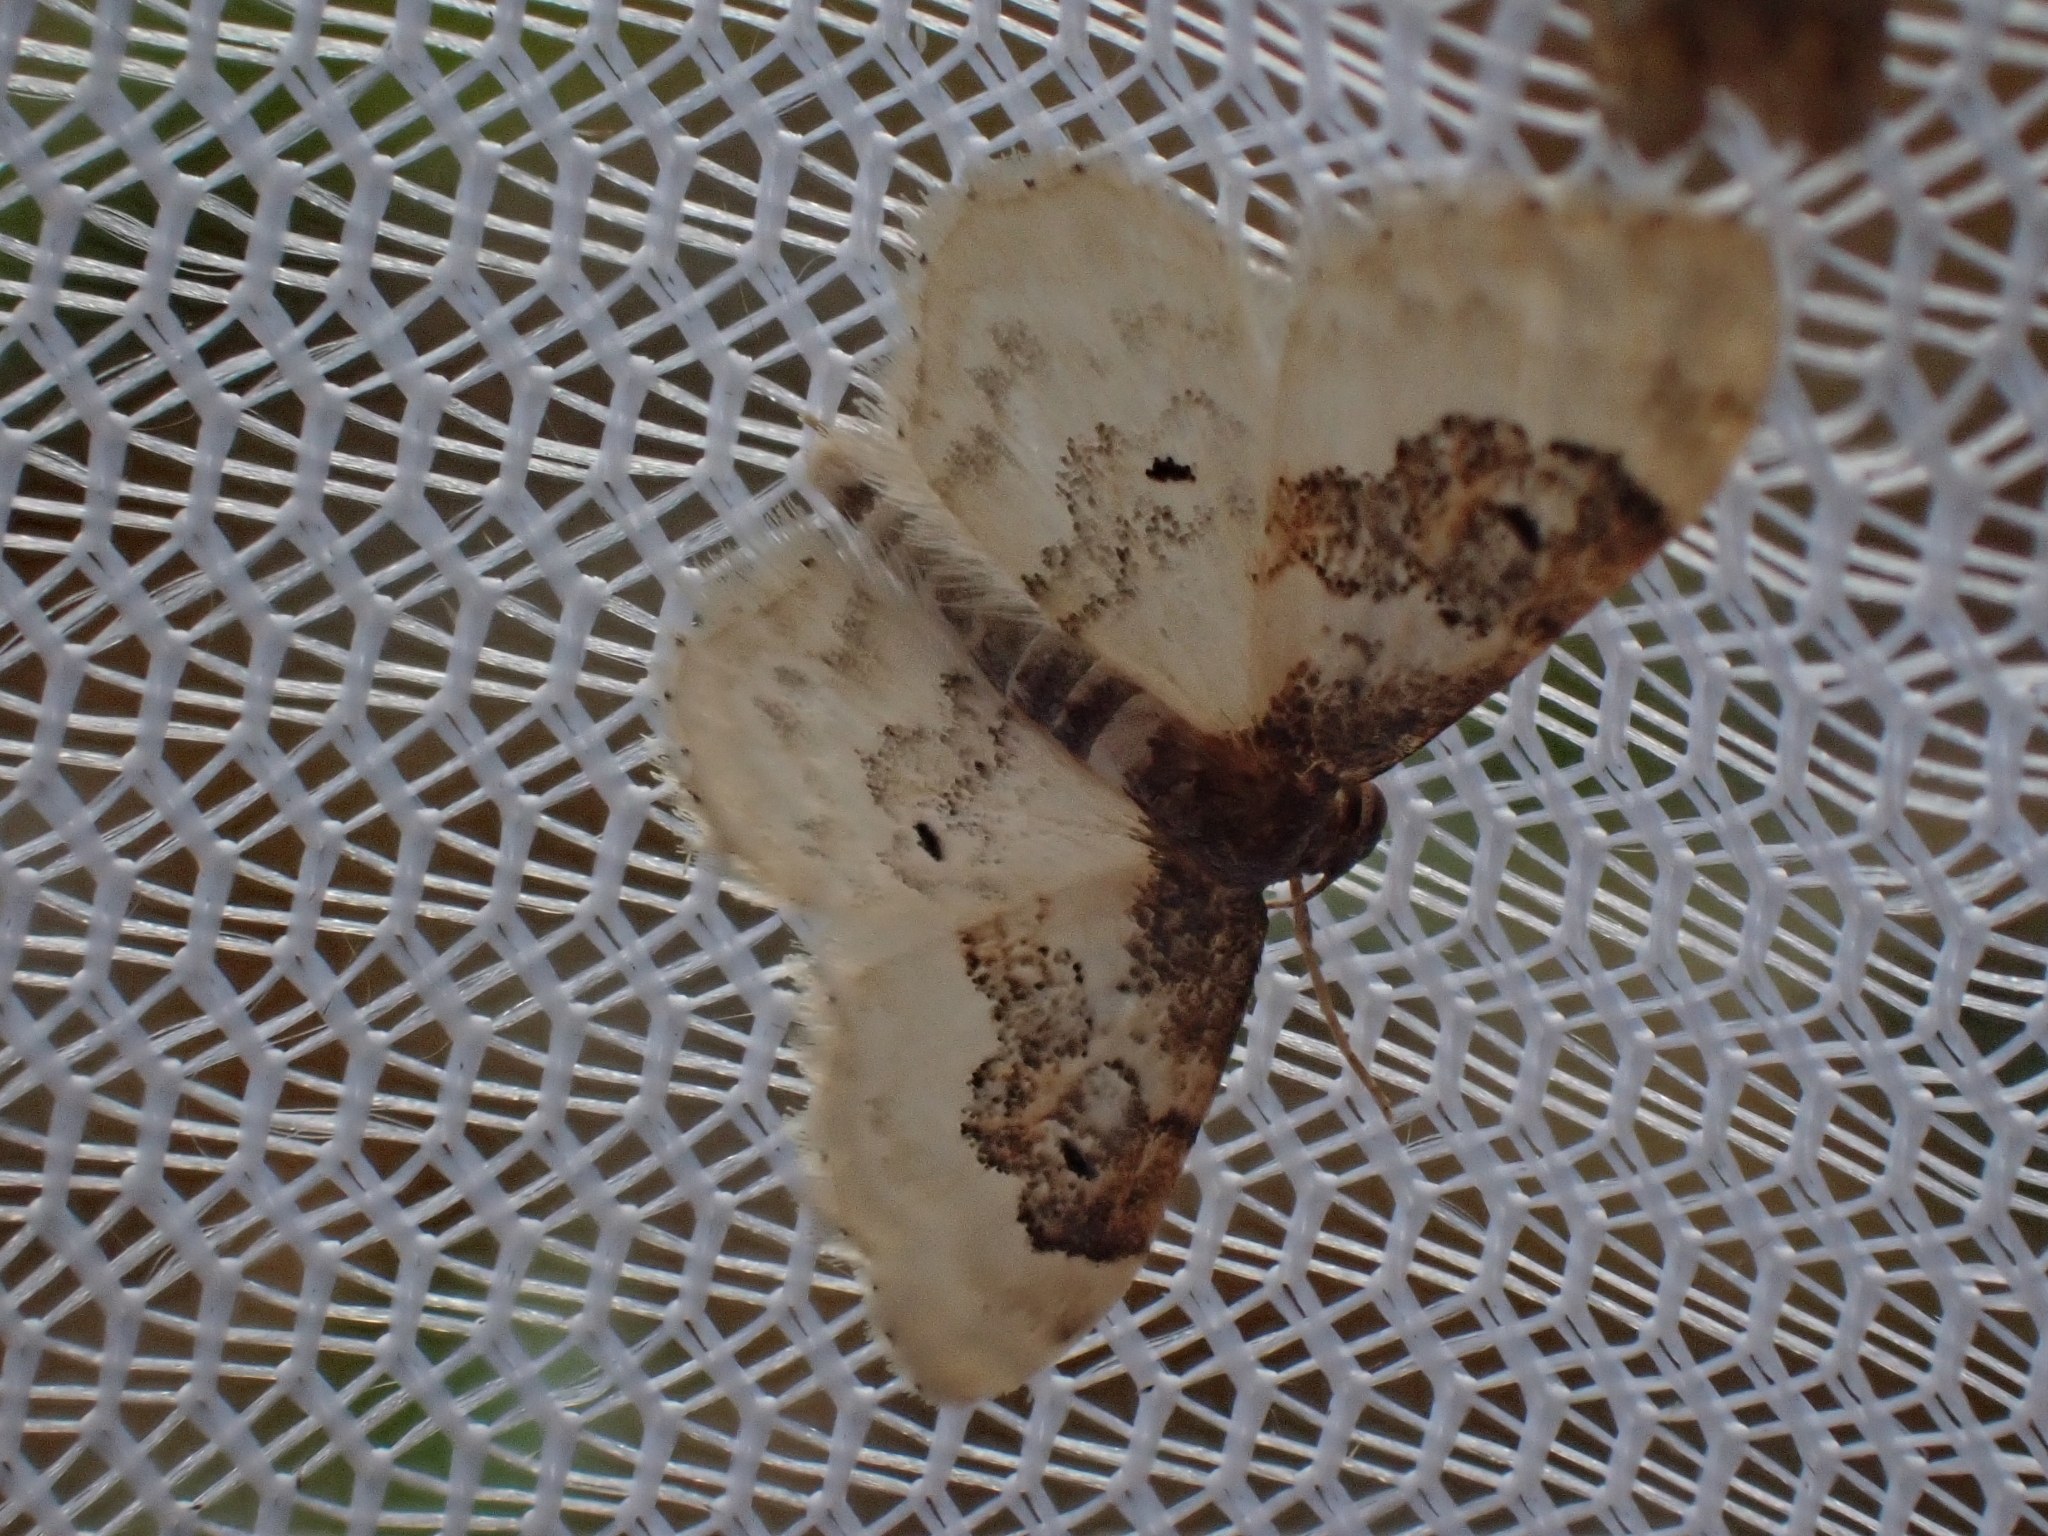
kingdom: Animalia
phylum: Arthropoda
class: Insecta
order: Lepidoptera
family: Geometridae
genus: Idaea
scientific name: Idaea rusticata
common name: Least carpet
